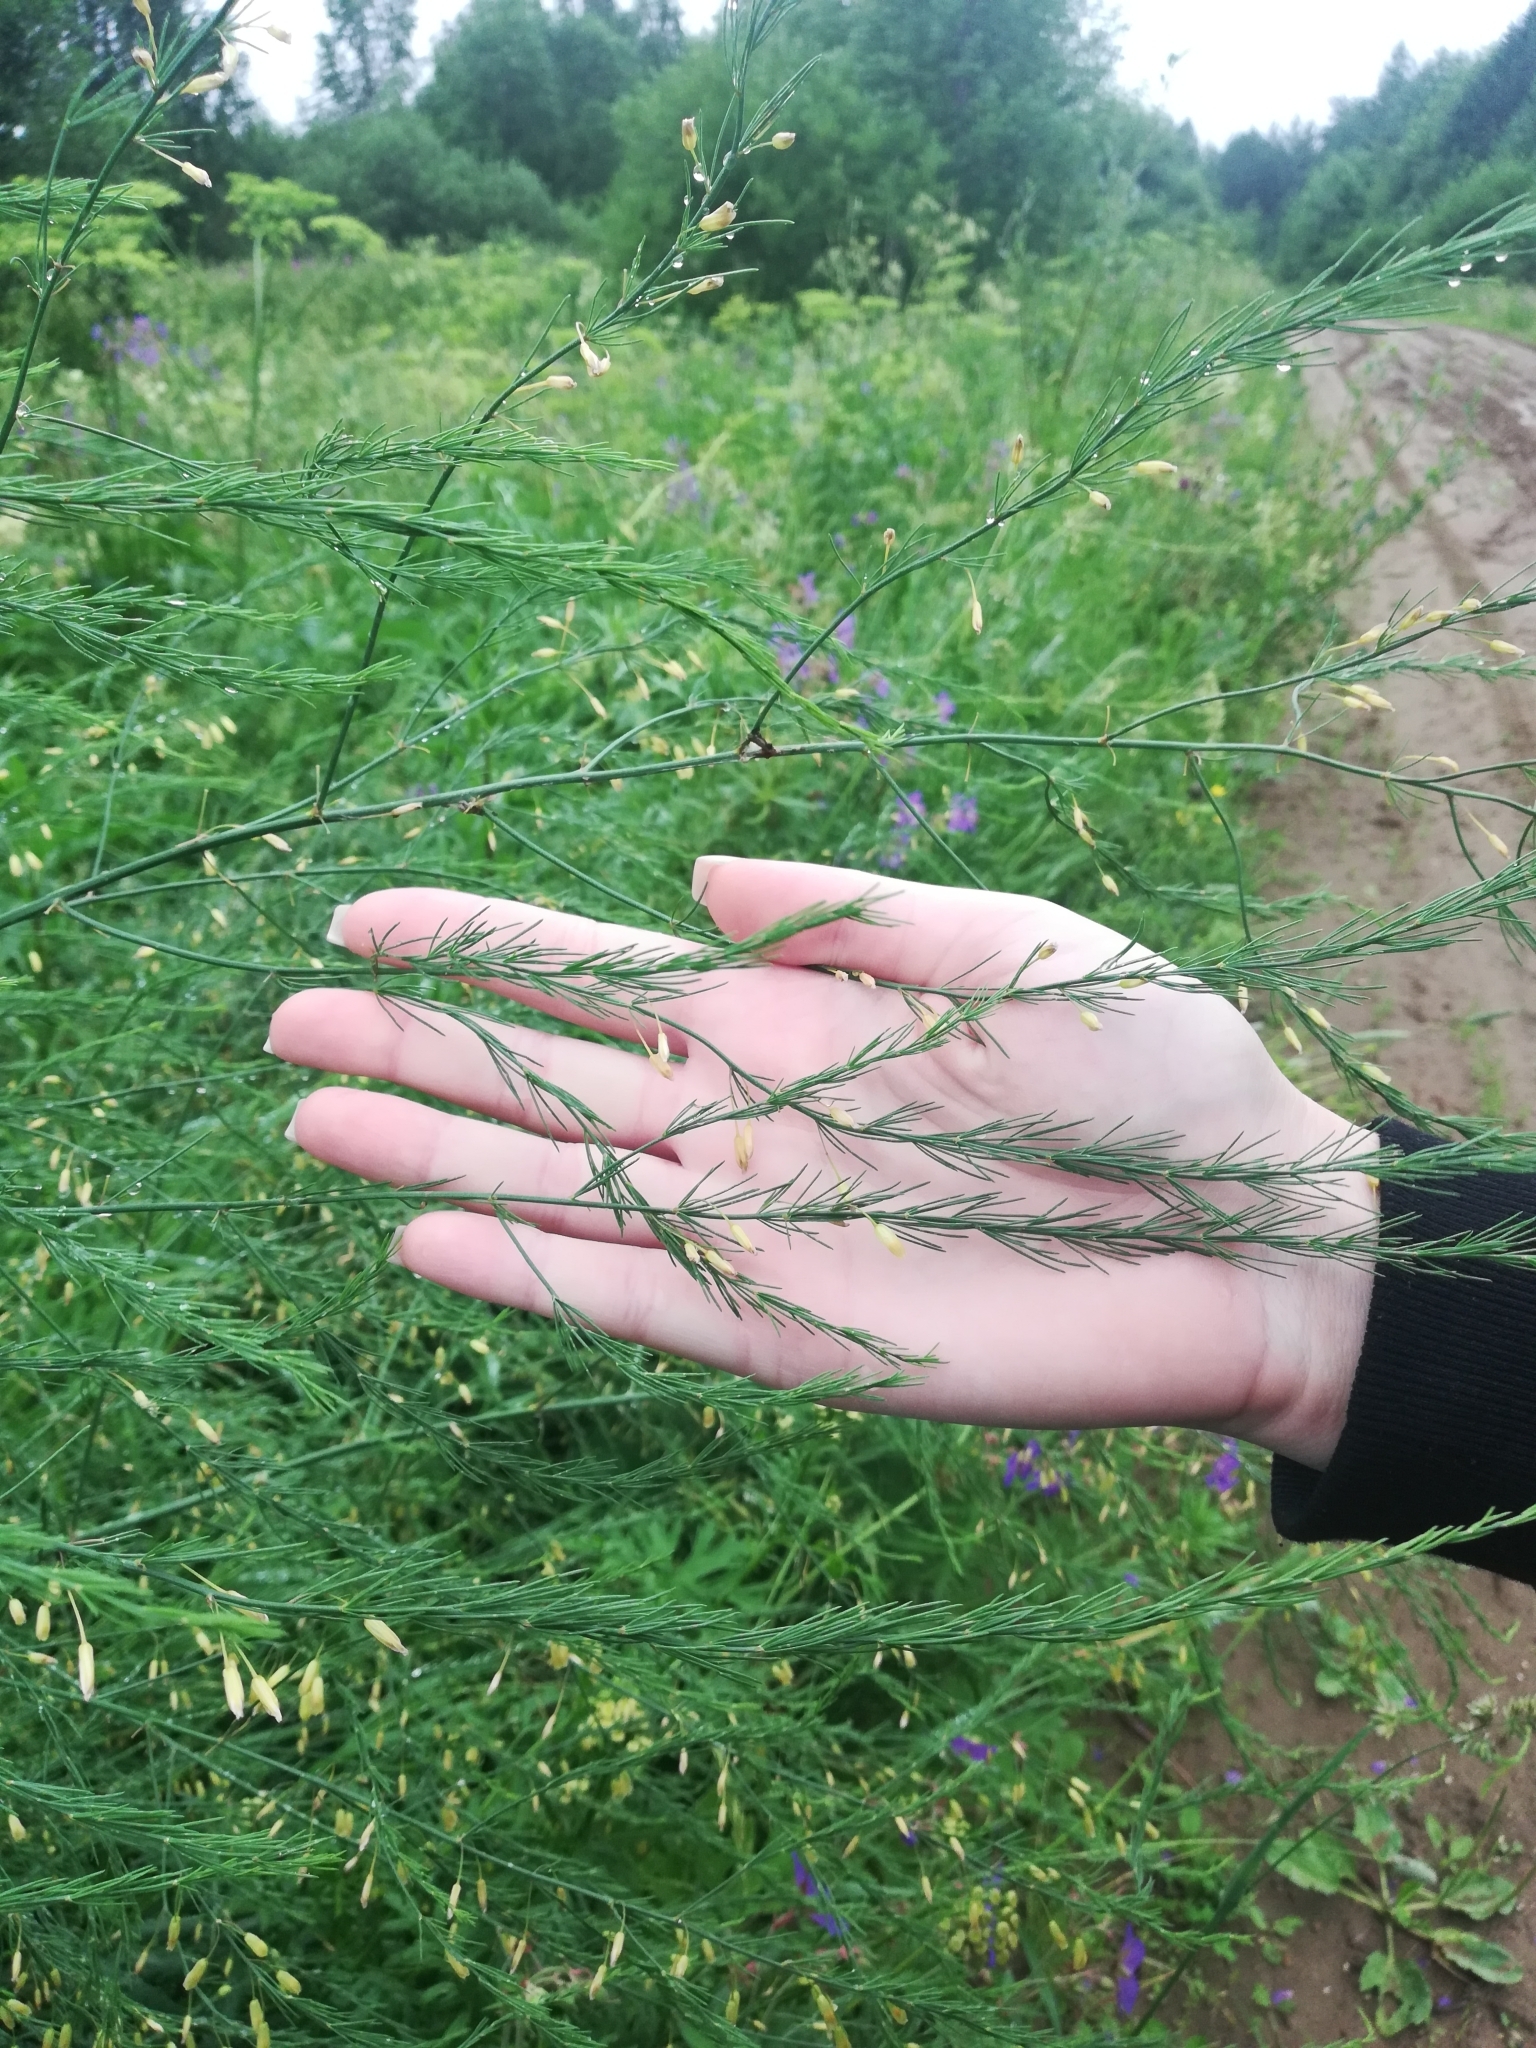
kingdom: Plantae
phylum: Tracheophyta
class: Liliopsida
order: Asparagales
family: Asparagaceae
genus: Asparagus
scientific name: Asparagus officinalis
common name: Garden asparagus
